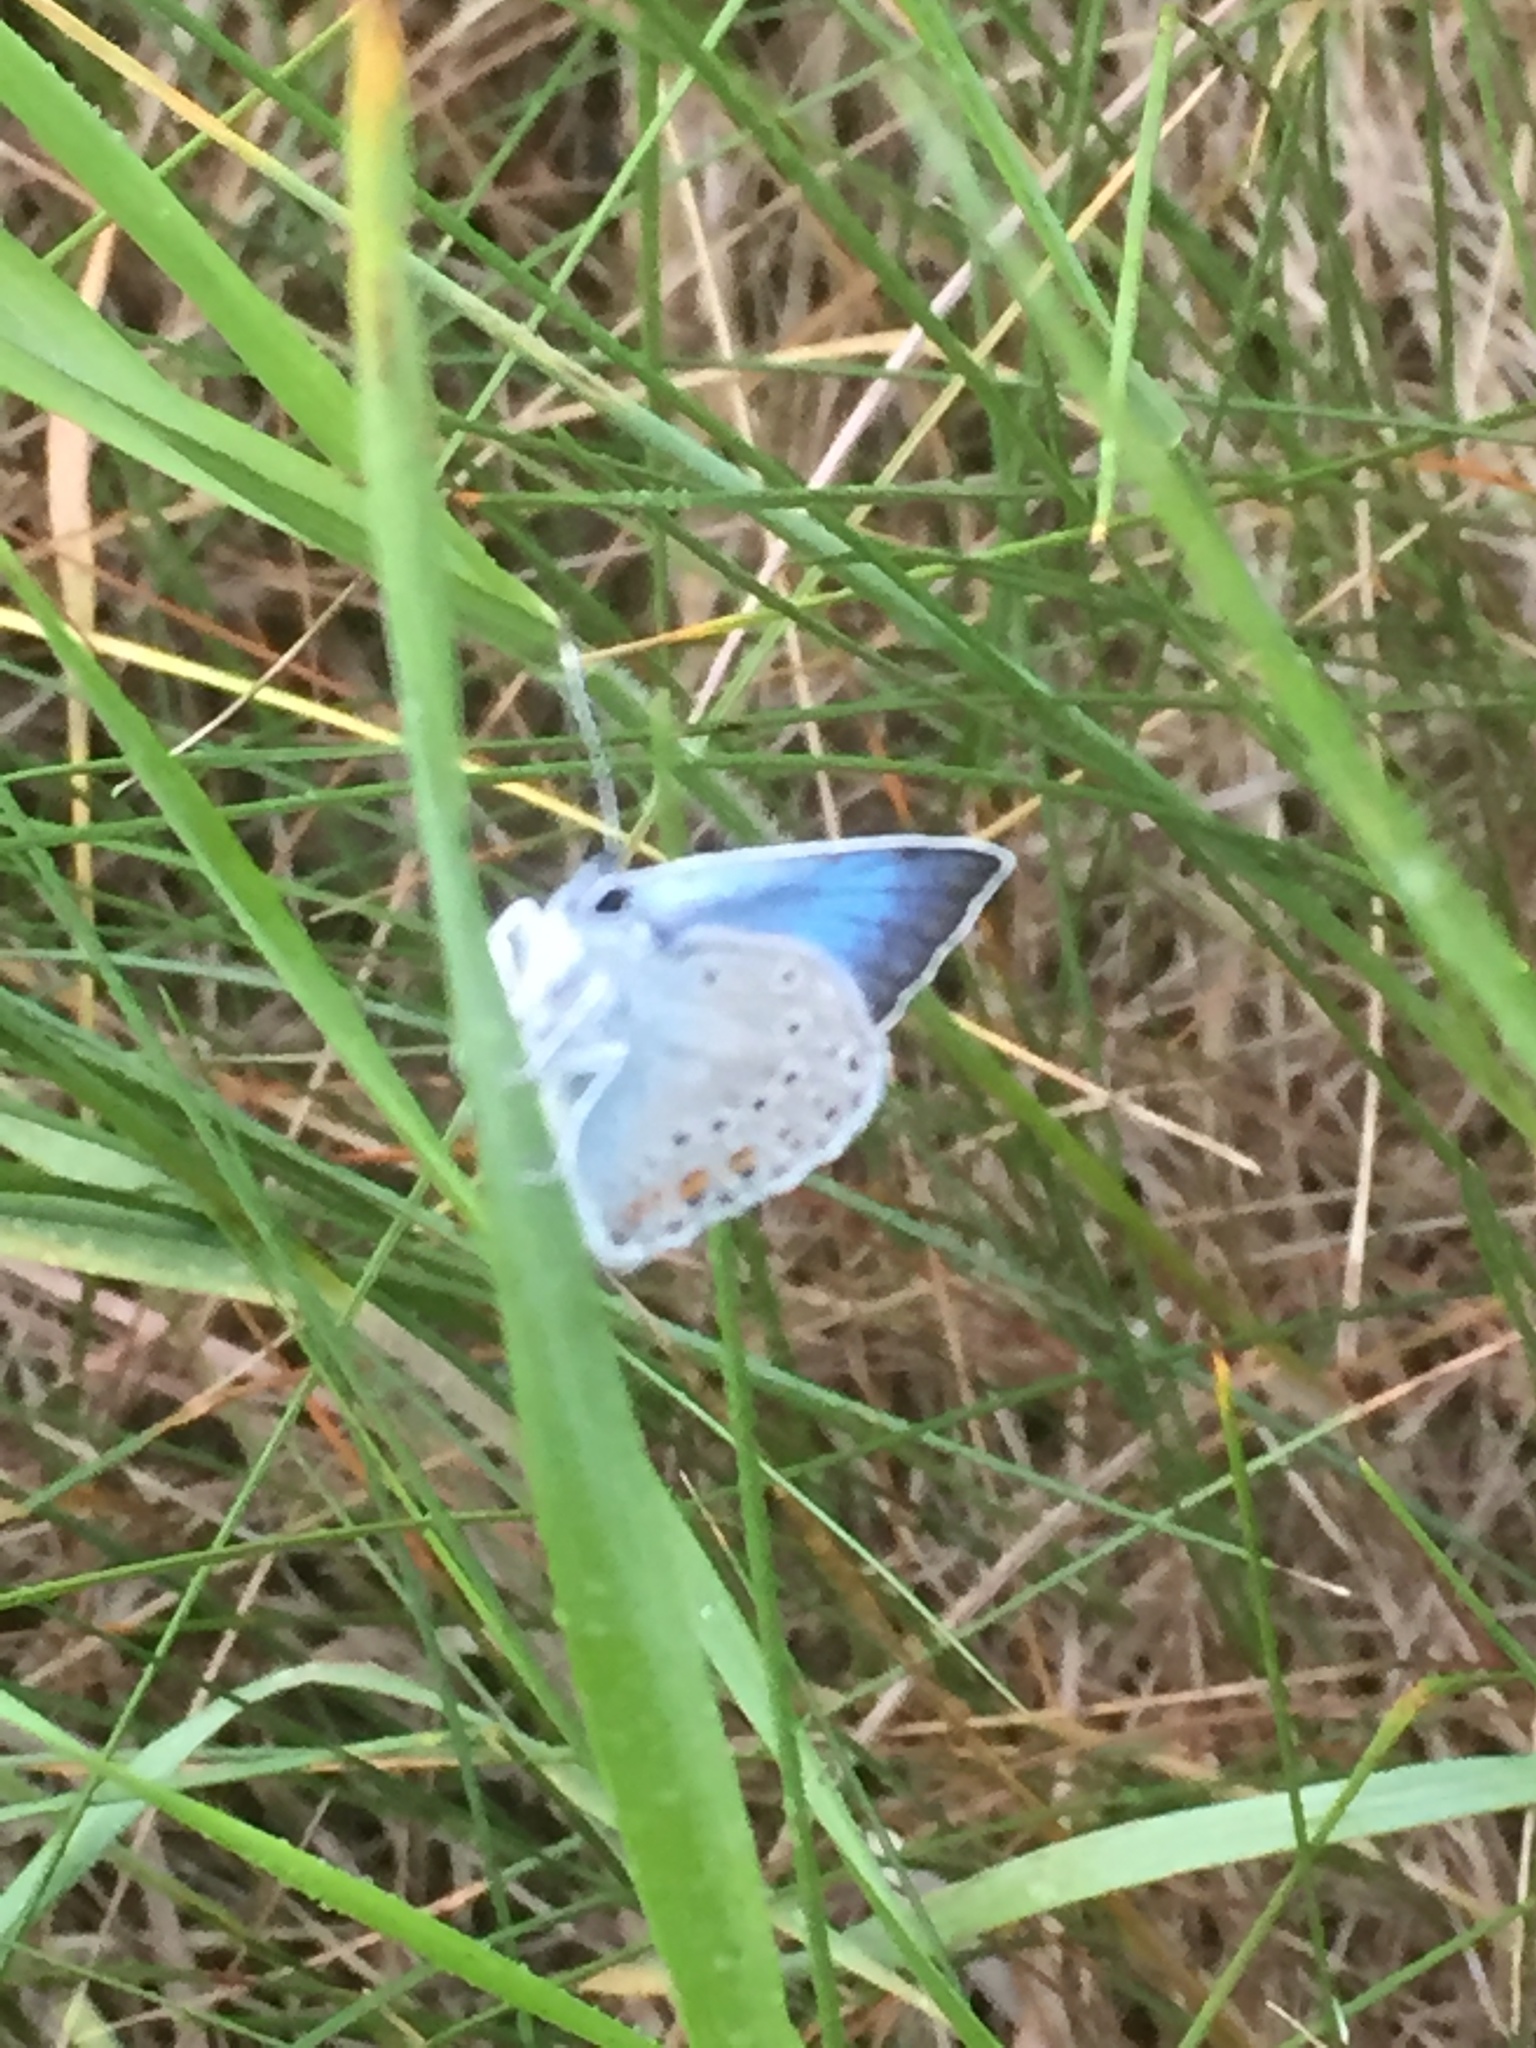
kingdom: Animalia
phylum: Arthropoda
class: Insecta
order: Lepidoptera
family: Lycaenidae
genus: Plebejus
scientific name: Plebejus amanda
